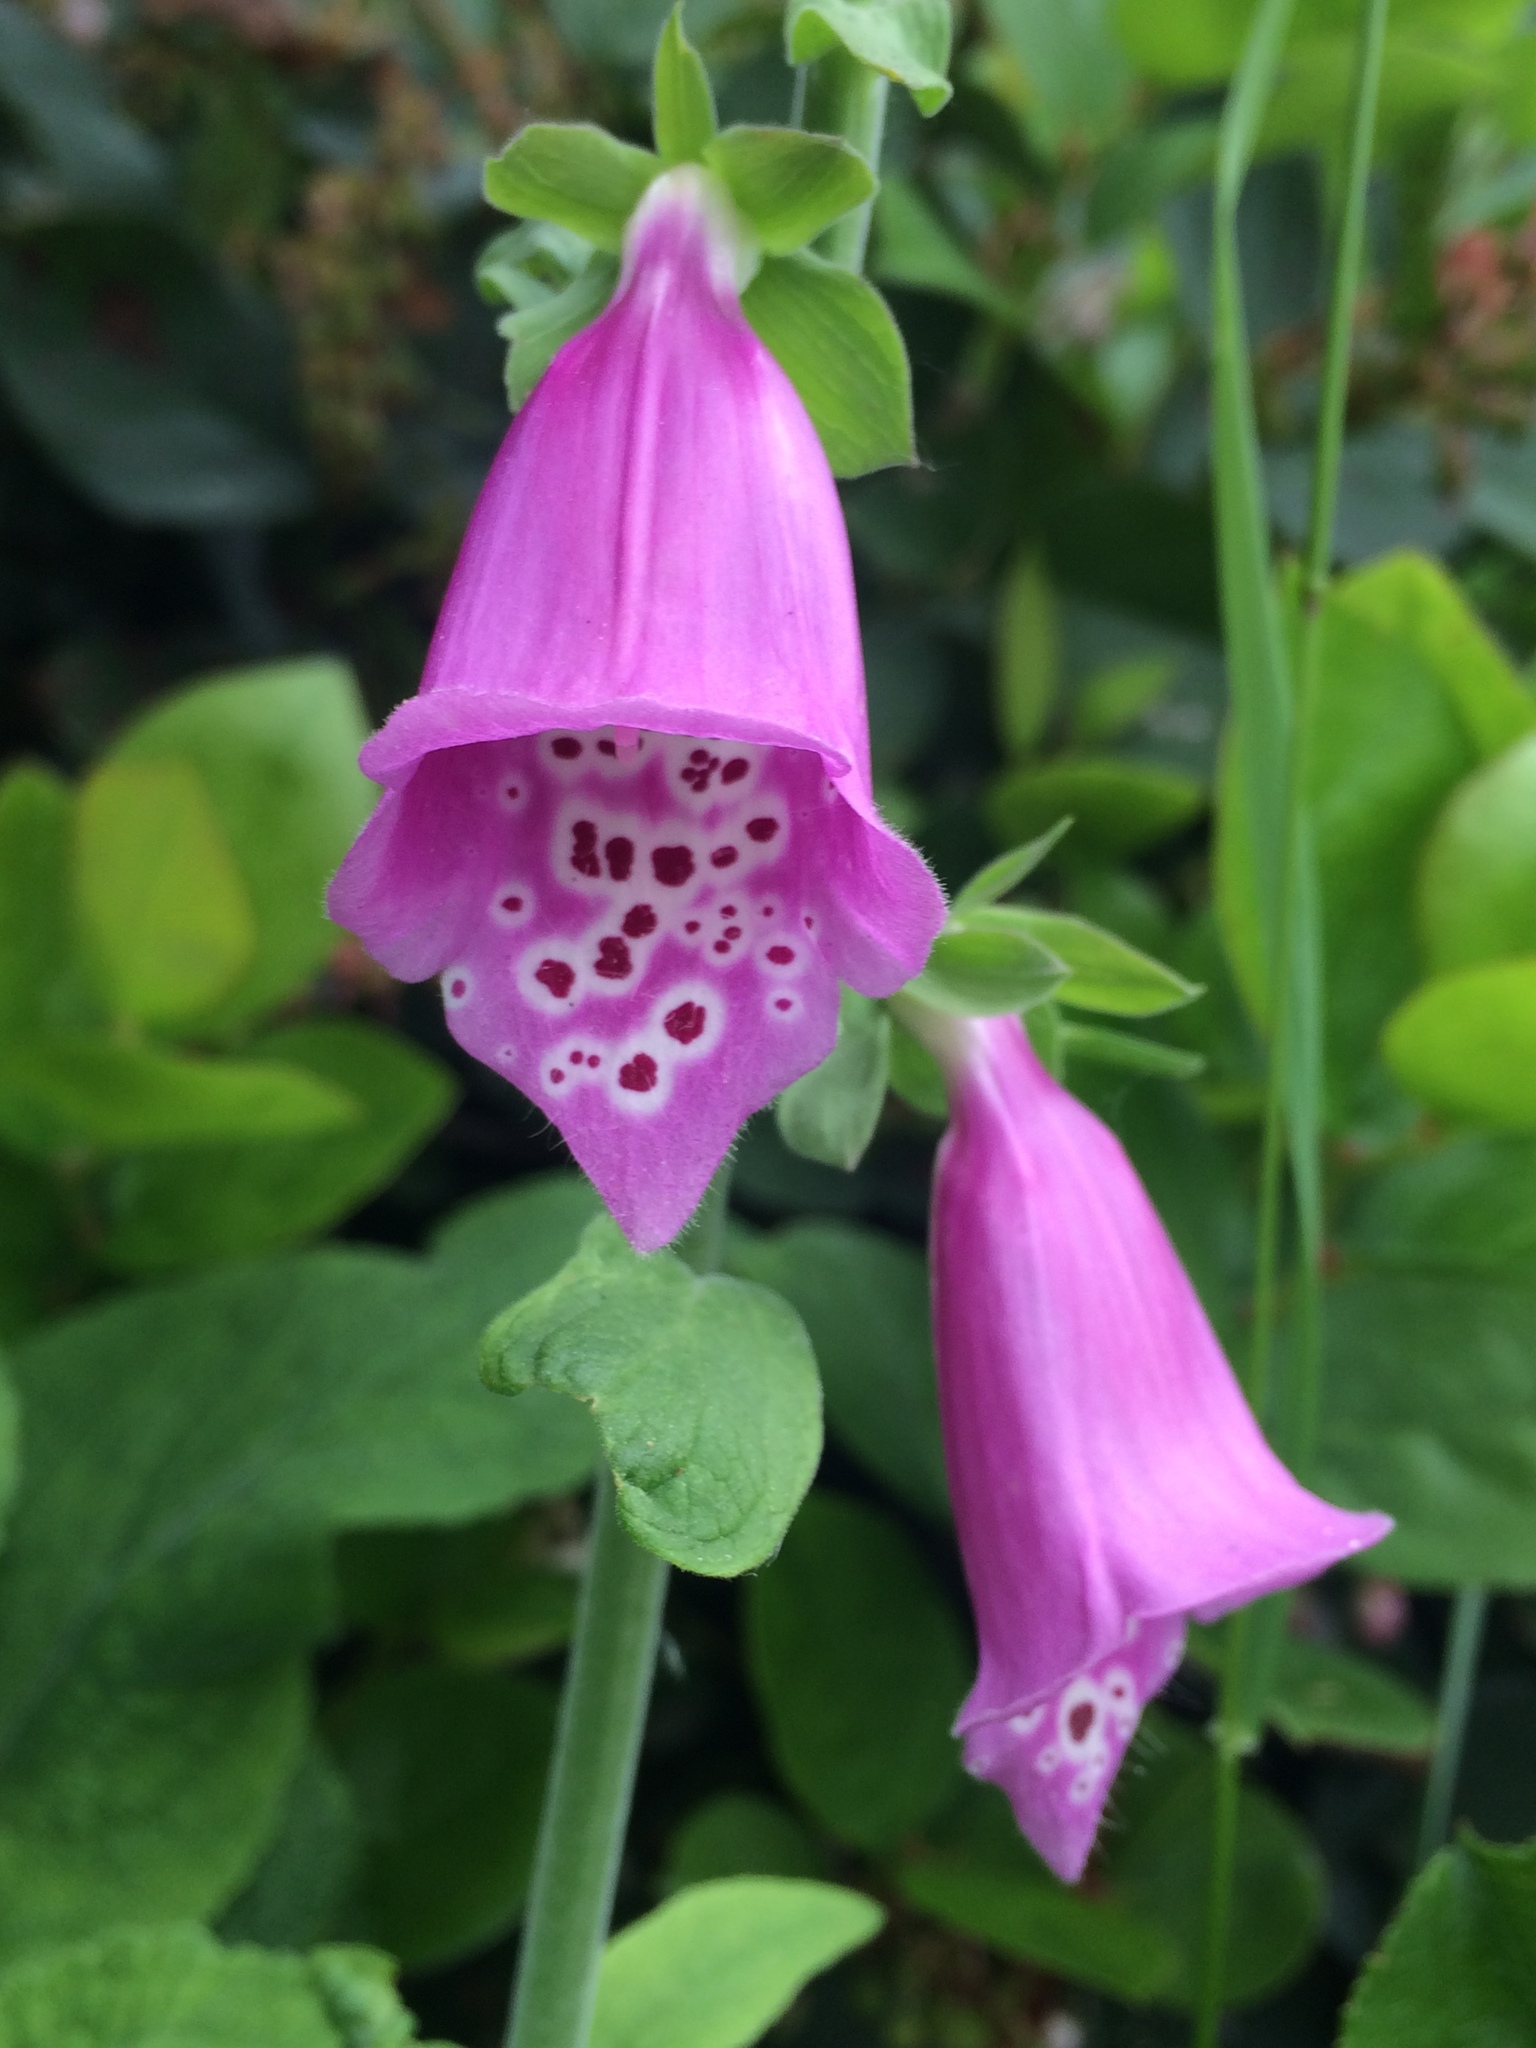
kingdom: Plantae
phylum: Tracheophyta
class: Magnoliopsida
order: Lamiales
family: Plantaginaceae
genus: Digitalis
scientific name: Digitalis purpurea
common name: Foxglove
